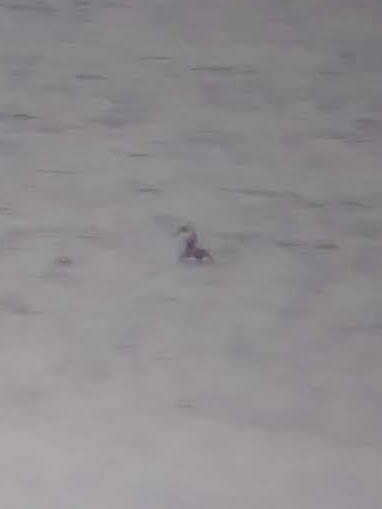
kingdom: Animalia
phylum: Chordata
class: Aves
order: Podicipediformes
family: Podicipedidae
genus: Podiceps
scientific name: Podiceps auritus
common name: Horned grebe
